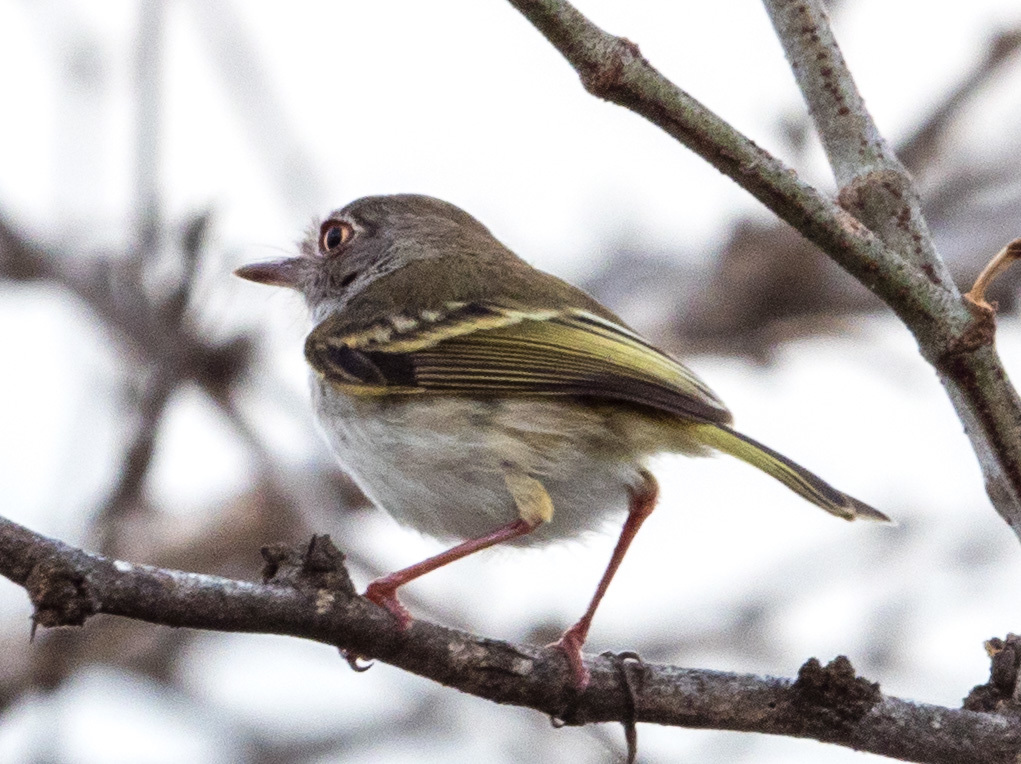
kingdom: Animalia
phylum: Chordata
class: Aves
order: Passeriformes
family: Tyrannidae
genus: Atalotriccus
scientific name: Atalotriccus pilaris
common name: Pale-eyed pygmy-tyrant
